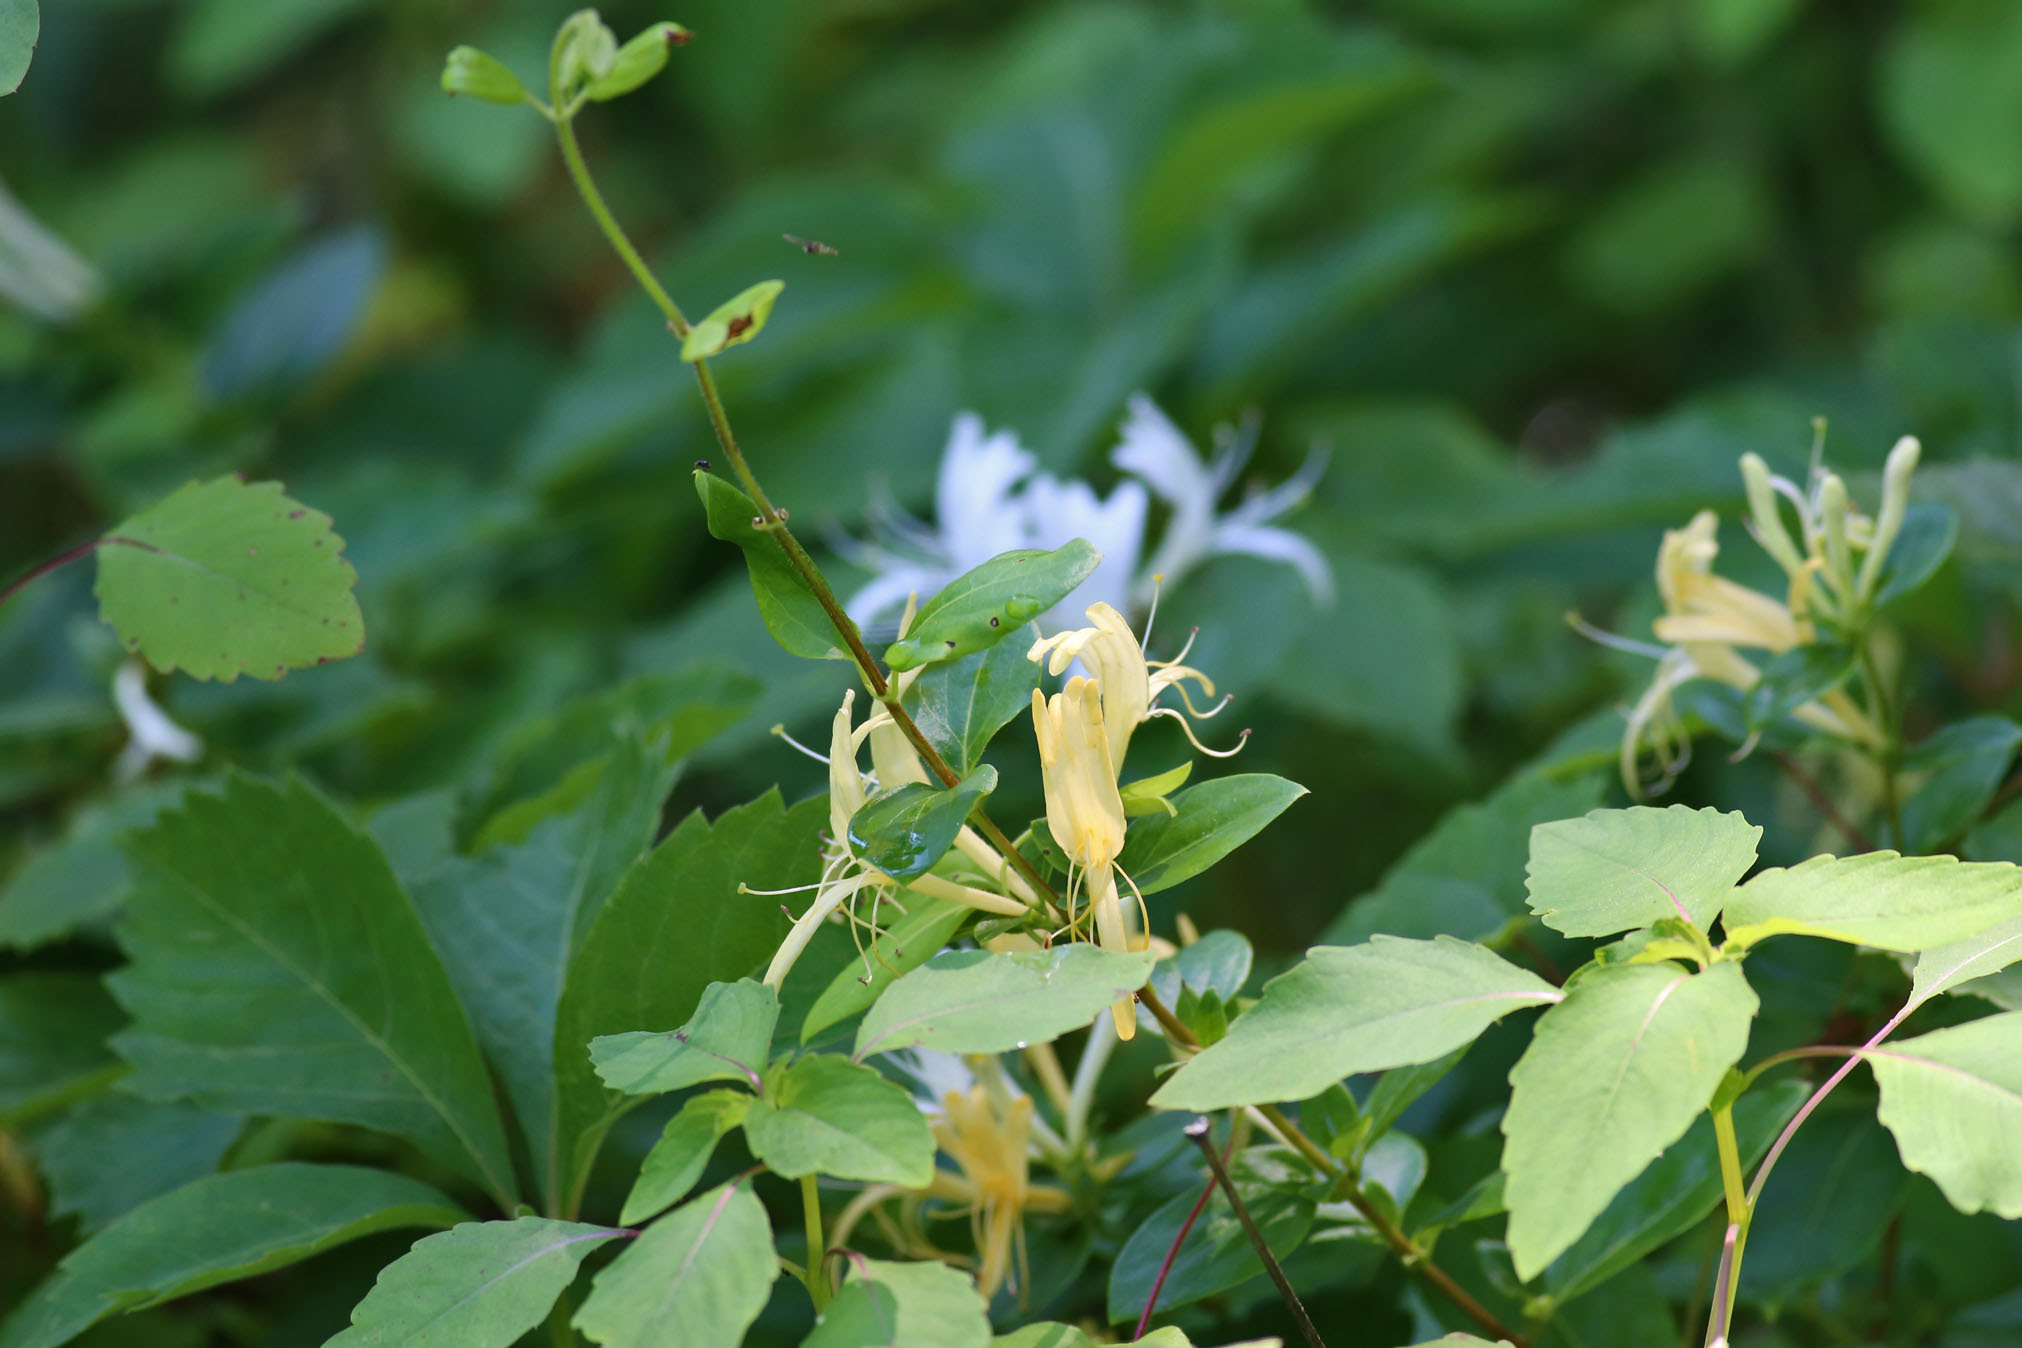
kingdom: Plantae
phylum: Tracheophyta
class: Magnoliopsida
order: Dipsacales
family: Caprifoliaceae
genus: Lonicera
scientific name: Lonicera japonica
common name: Japanese honeysuckle
